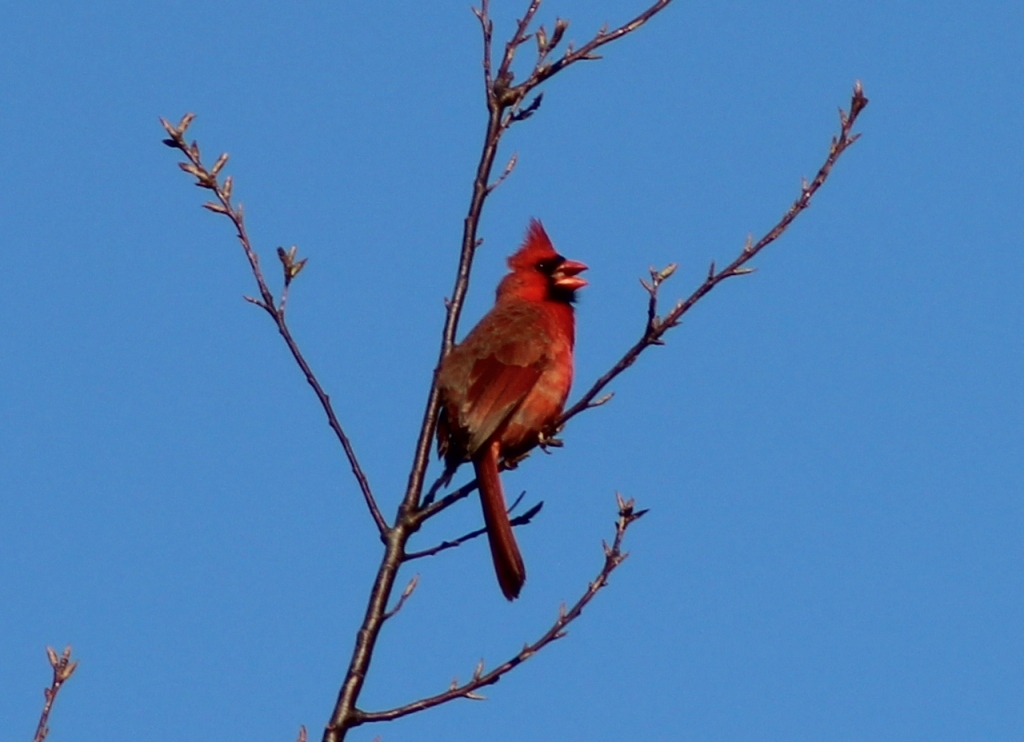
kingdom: Animalia
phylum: Chordata
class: Aves
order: Passeriformes
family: Cardinalidae
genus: Cardinalis
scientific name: Cardinalis cardinalis
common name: Northern cardinal
